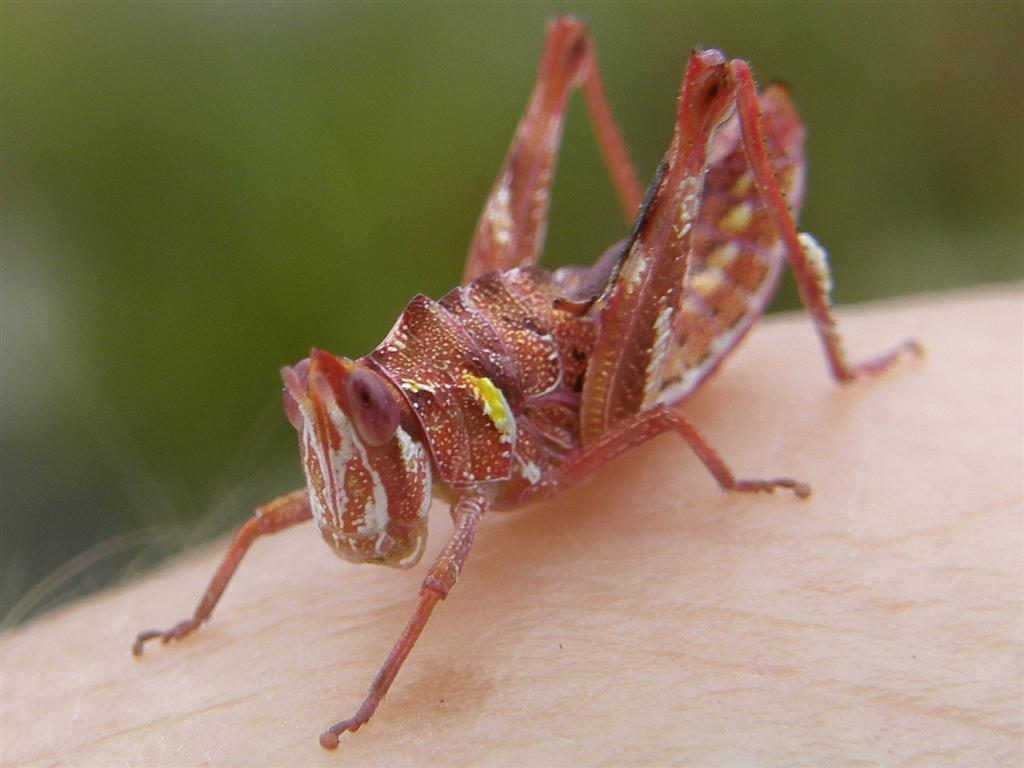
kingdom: Animalia
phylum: Arthropoda
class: Insecta
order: Orthoptera
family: Thericleidae
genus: Thericlesiella
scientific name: Thericlesiella meridionalis
